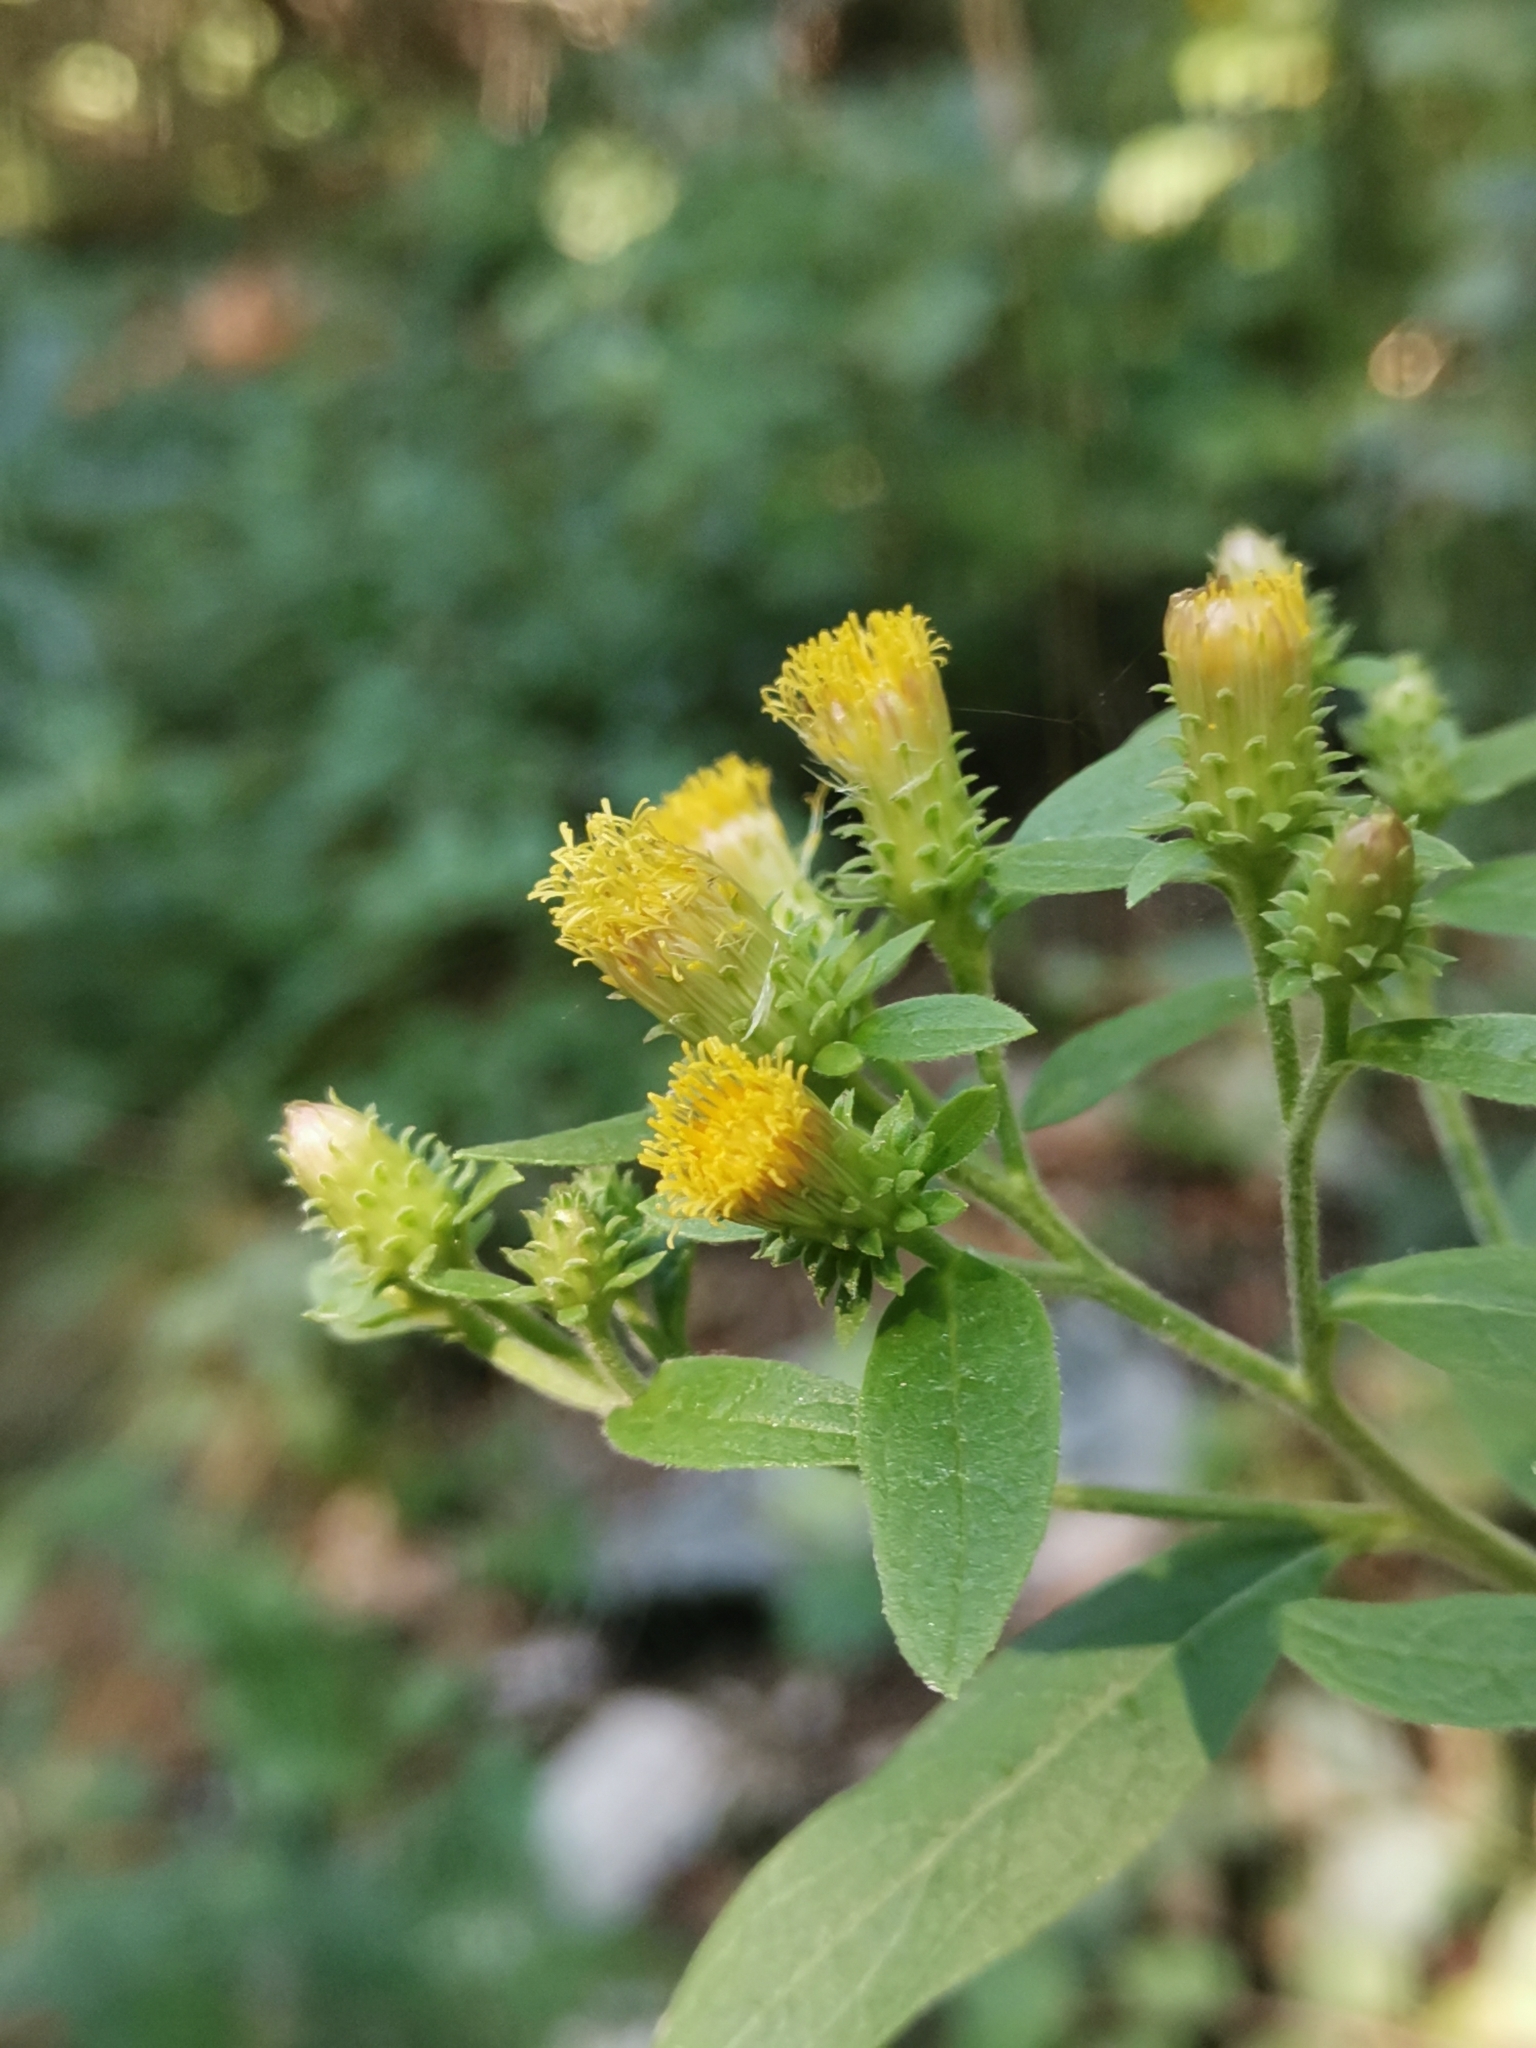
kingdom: Plantae
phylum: Tracheophyta
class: Magnoliopsida
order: Asterales
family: Asteraceae
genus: Pentanema
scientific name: Pentanema squarrosum
